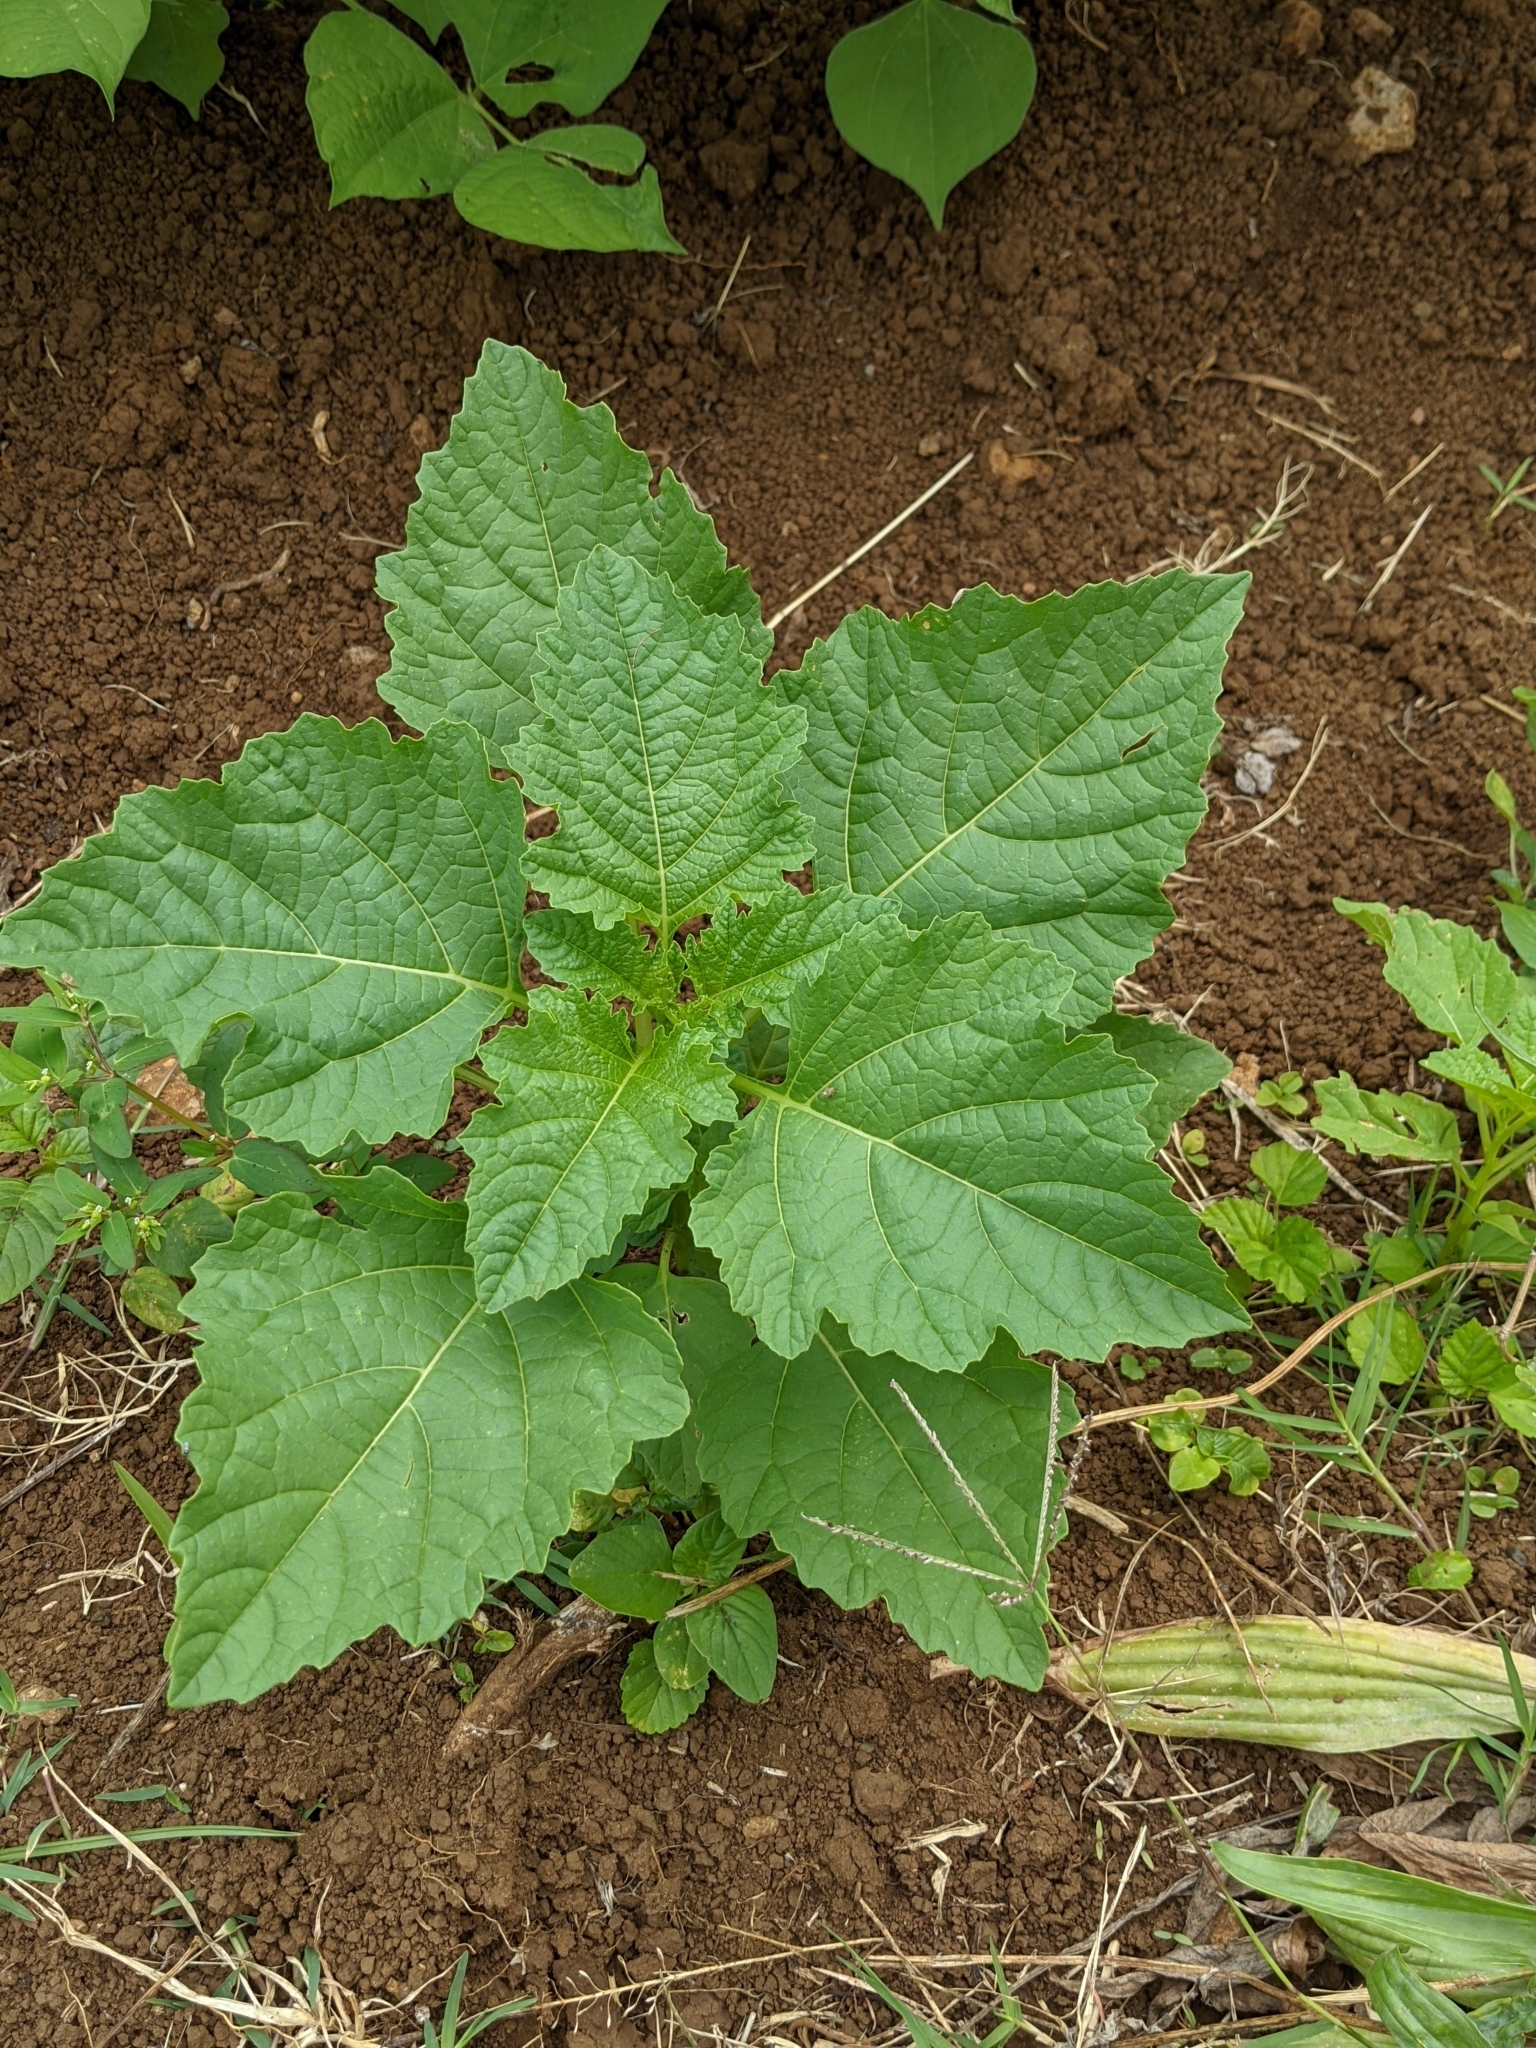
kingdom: Plantae
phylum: Tracheophyta
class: Magnoliopsida
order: Solanales
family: Solanaceae
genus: Nicandra
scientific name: Nicandra physalodes
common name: Apple-of-peru
